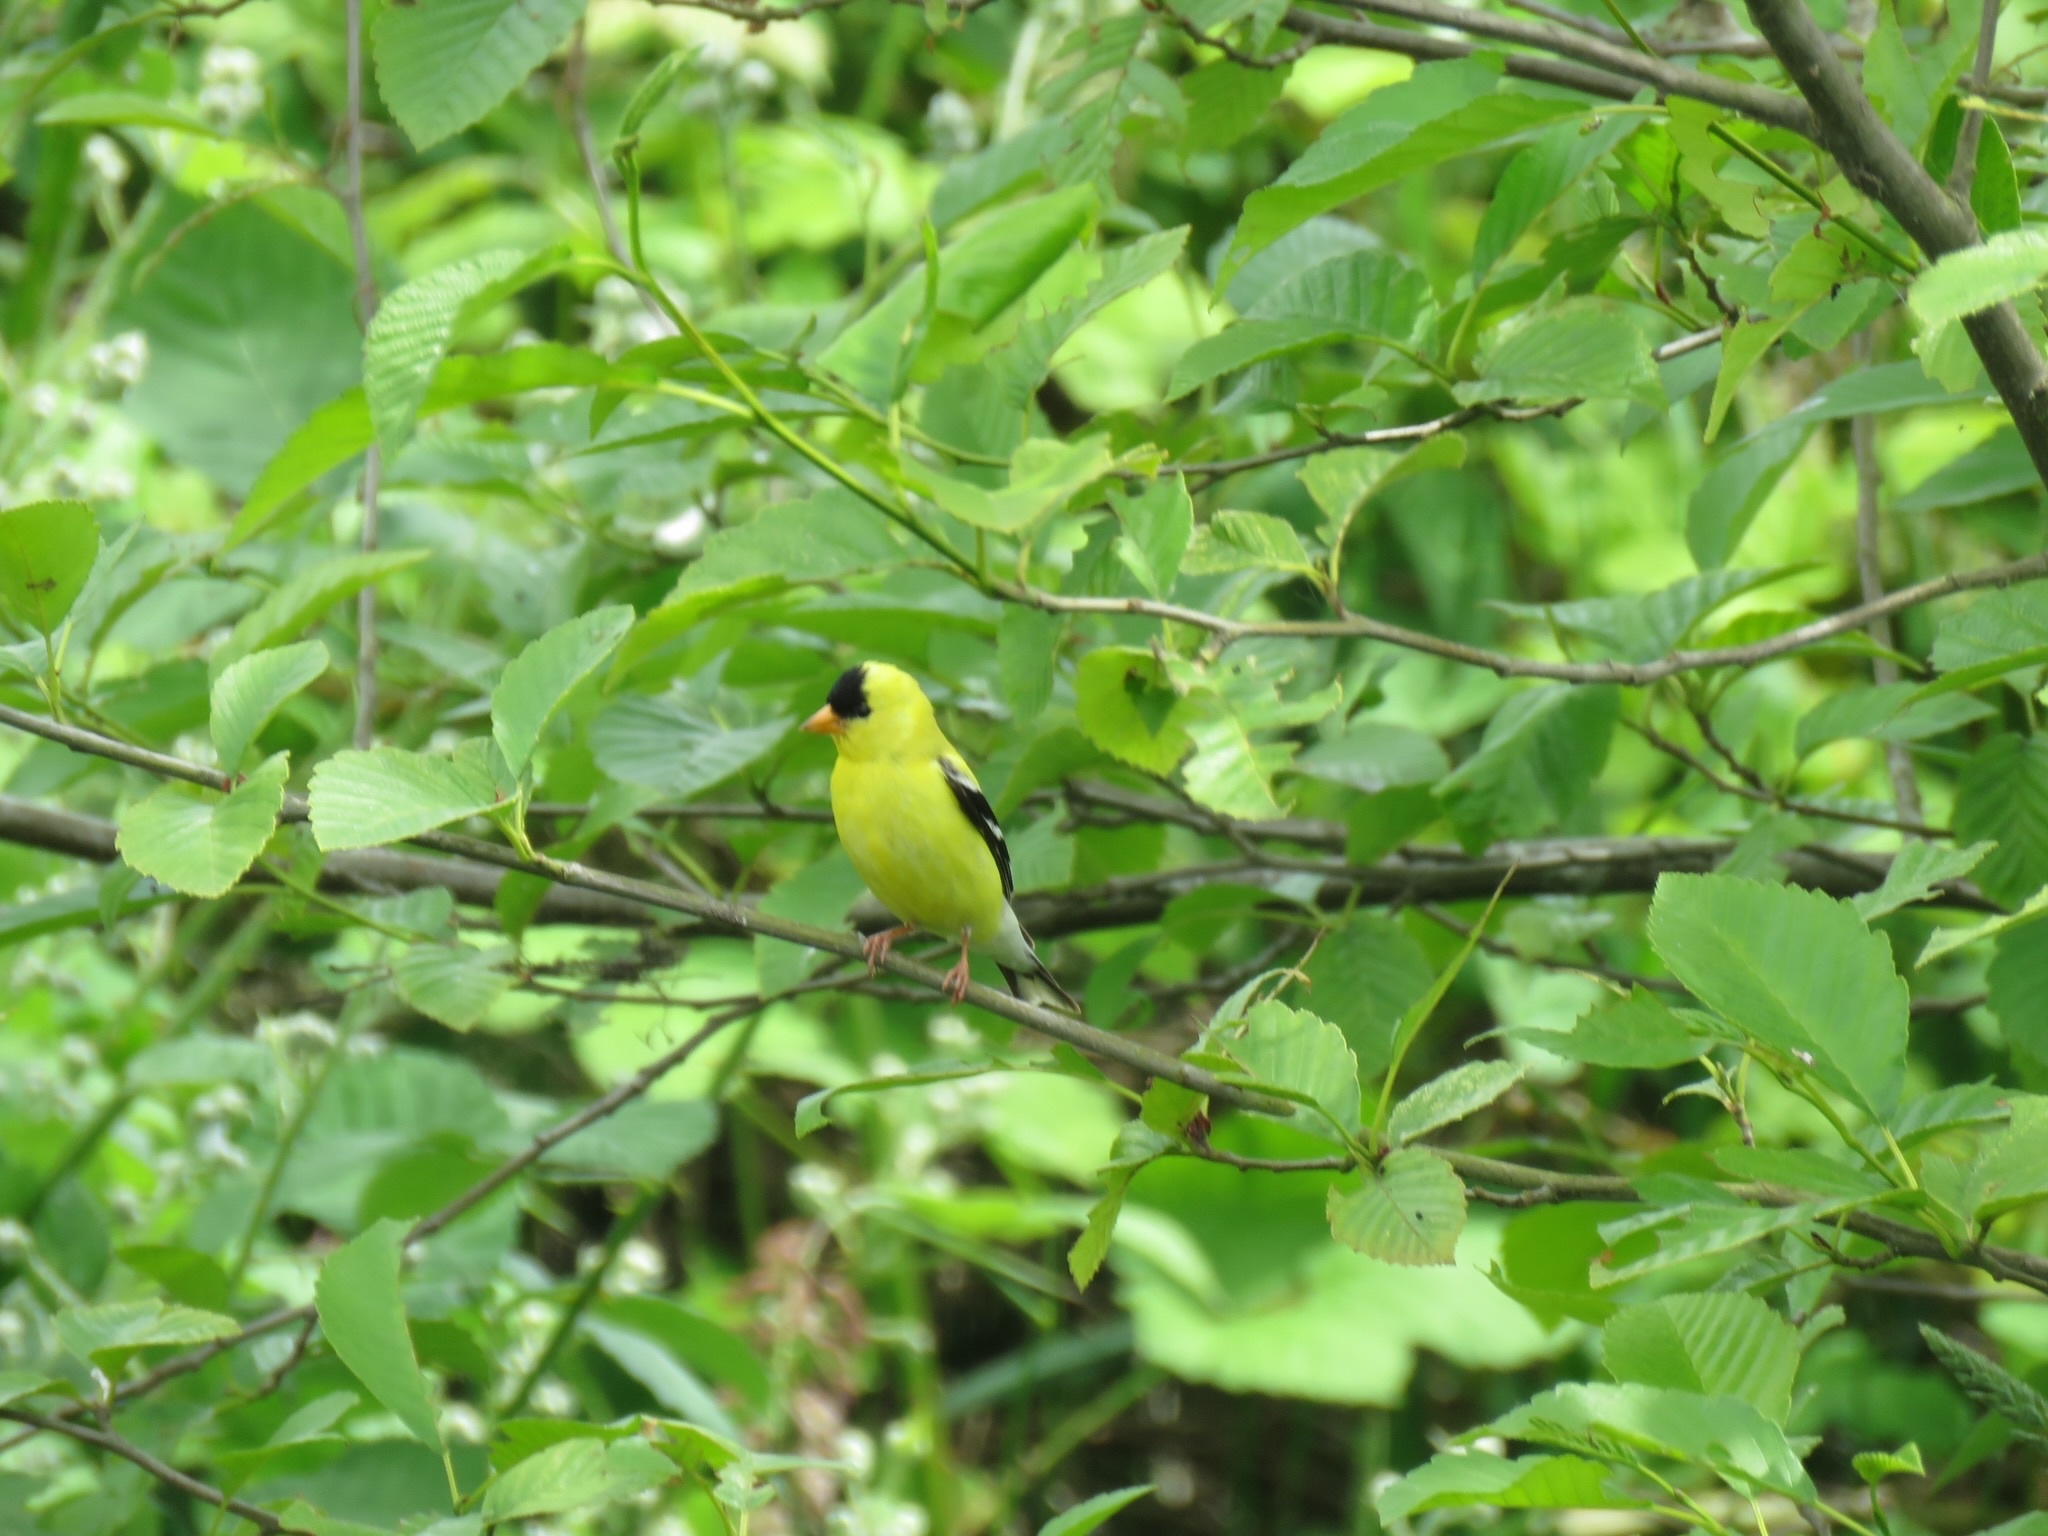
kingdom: Animalia
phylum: Chordata
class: Aves
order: Passeriformes
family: Fringillidae
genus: Spinus
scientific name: Spinus tristis
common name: American goldfinch
